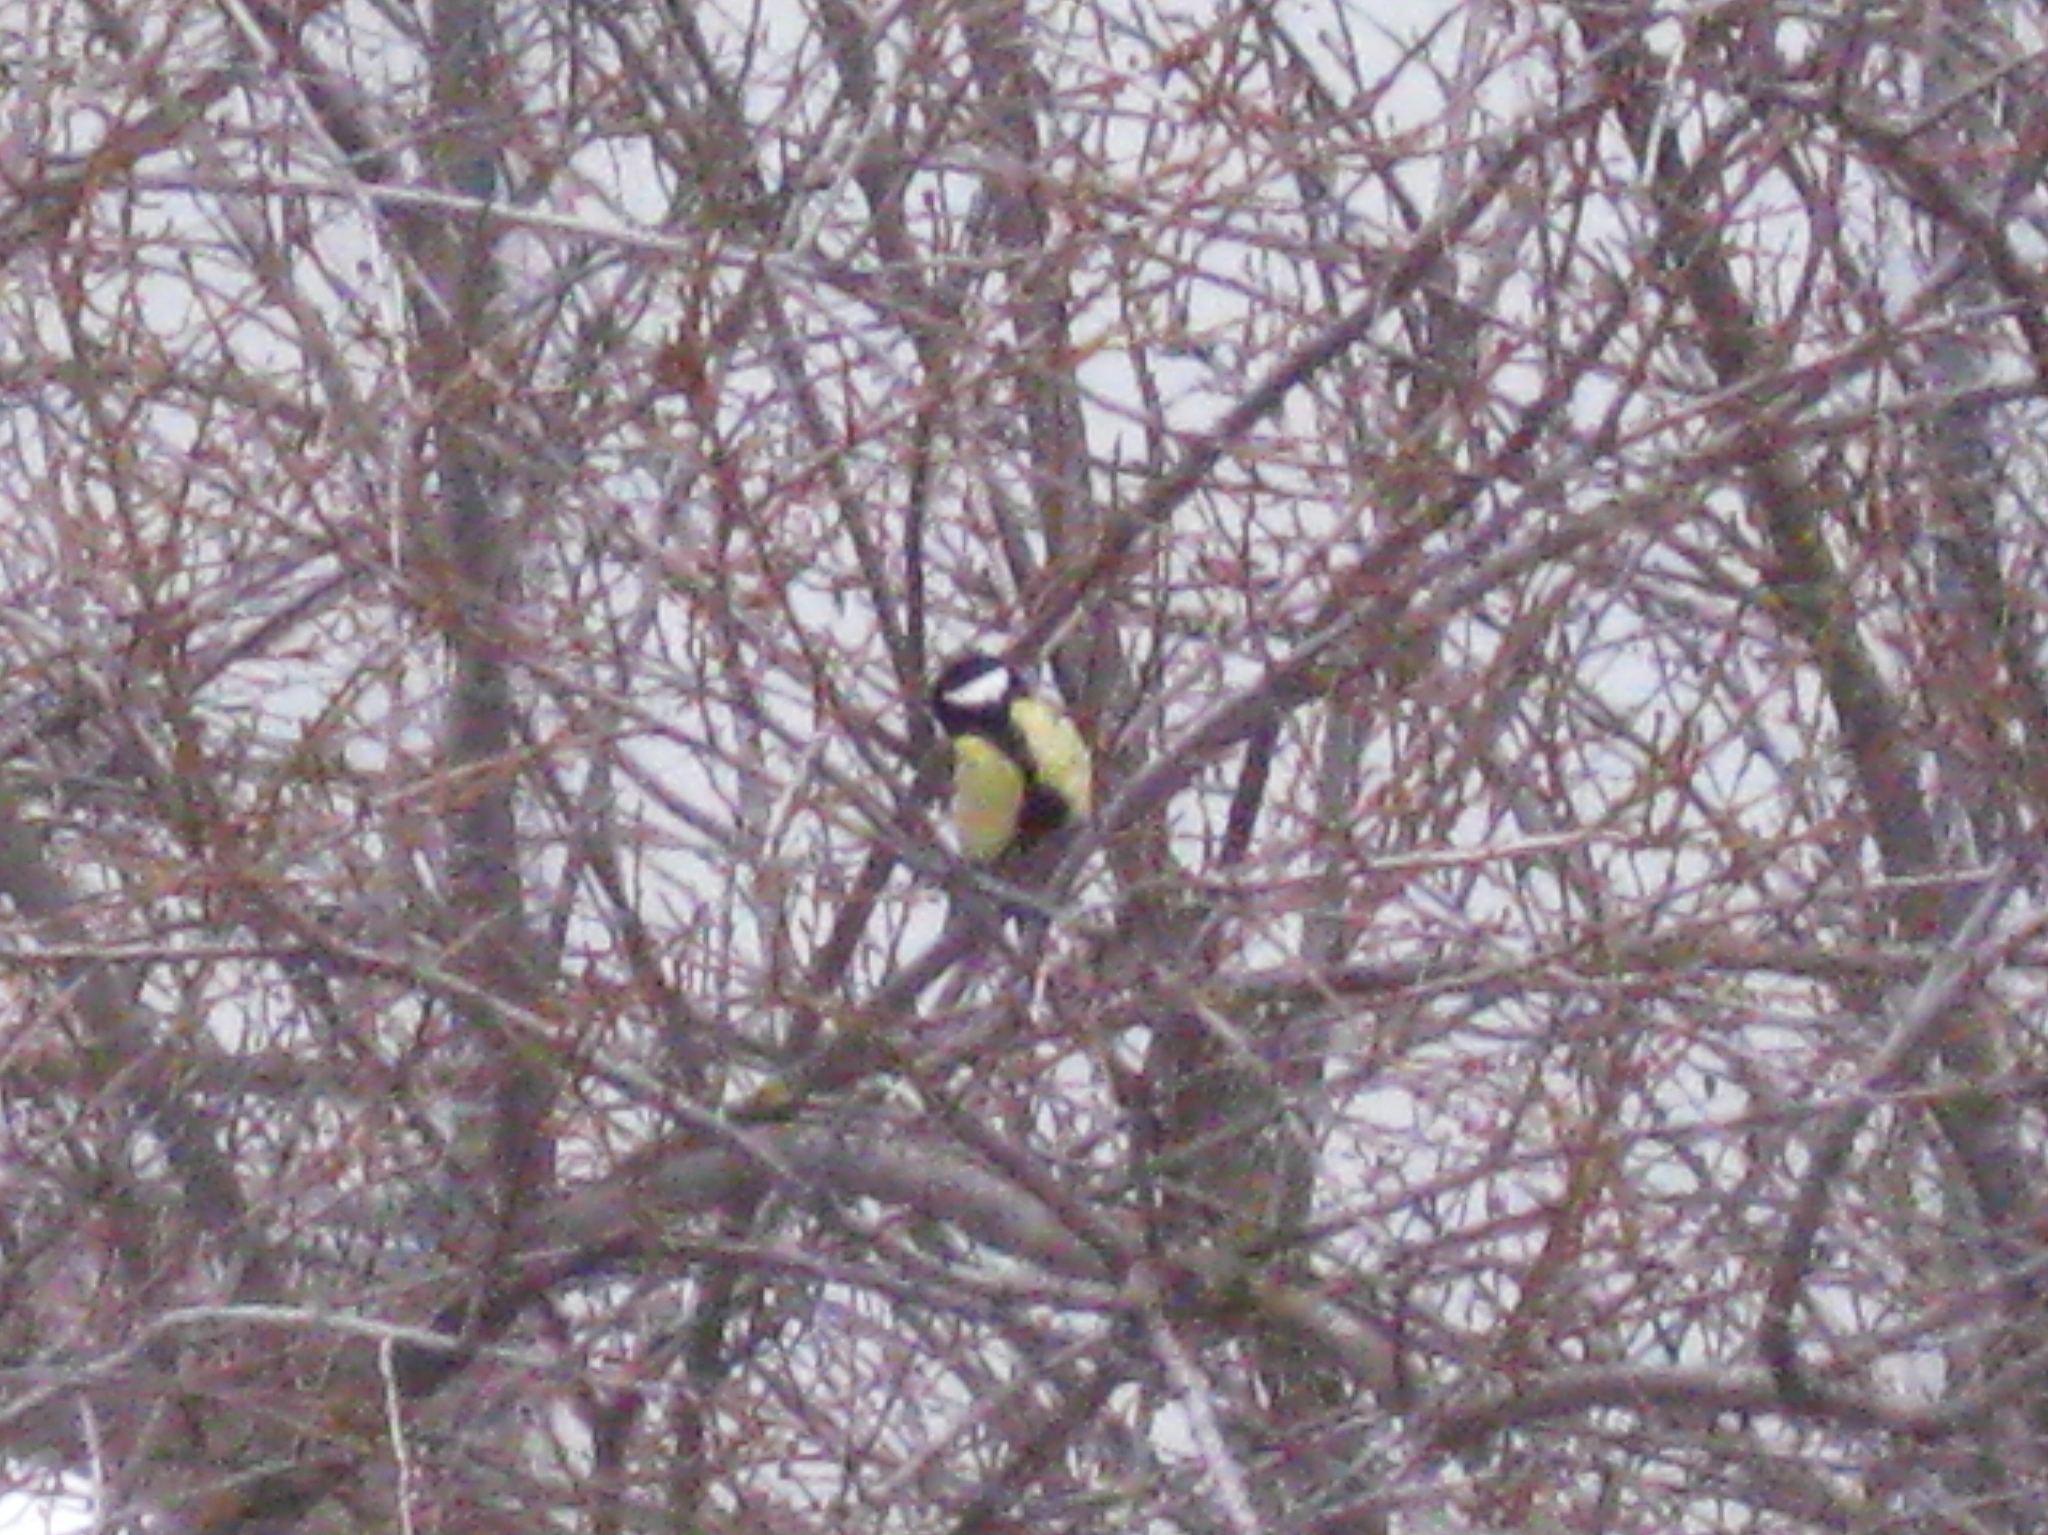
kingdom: Animalia
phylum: Chordata
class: Aves
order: Passeriformes
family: Paridae
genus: Parus
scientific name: Parus major
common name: Great tit
